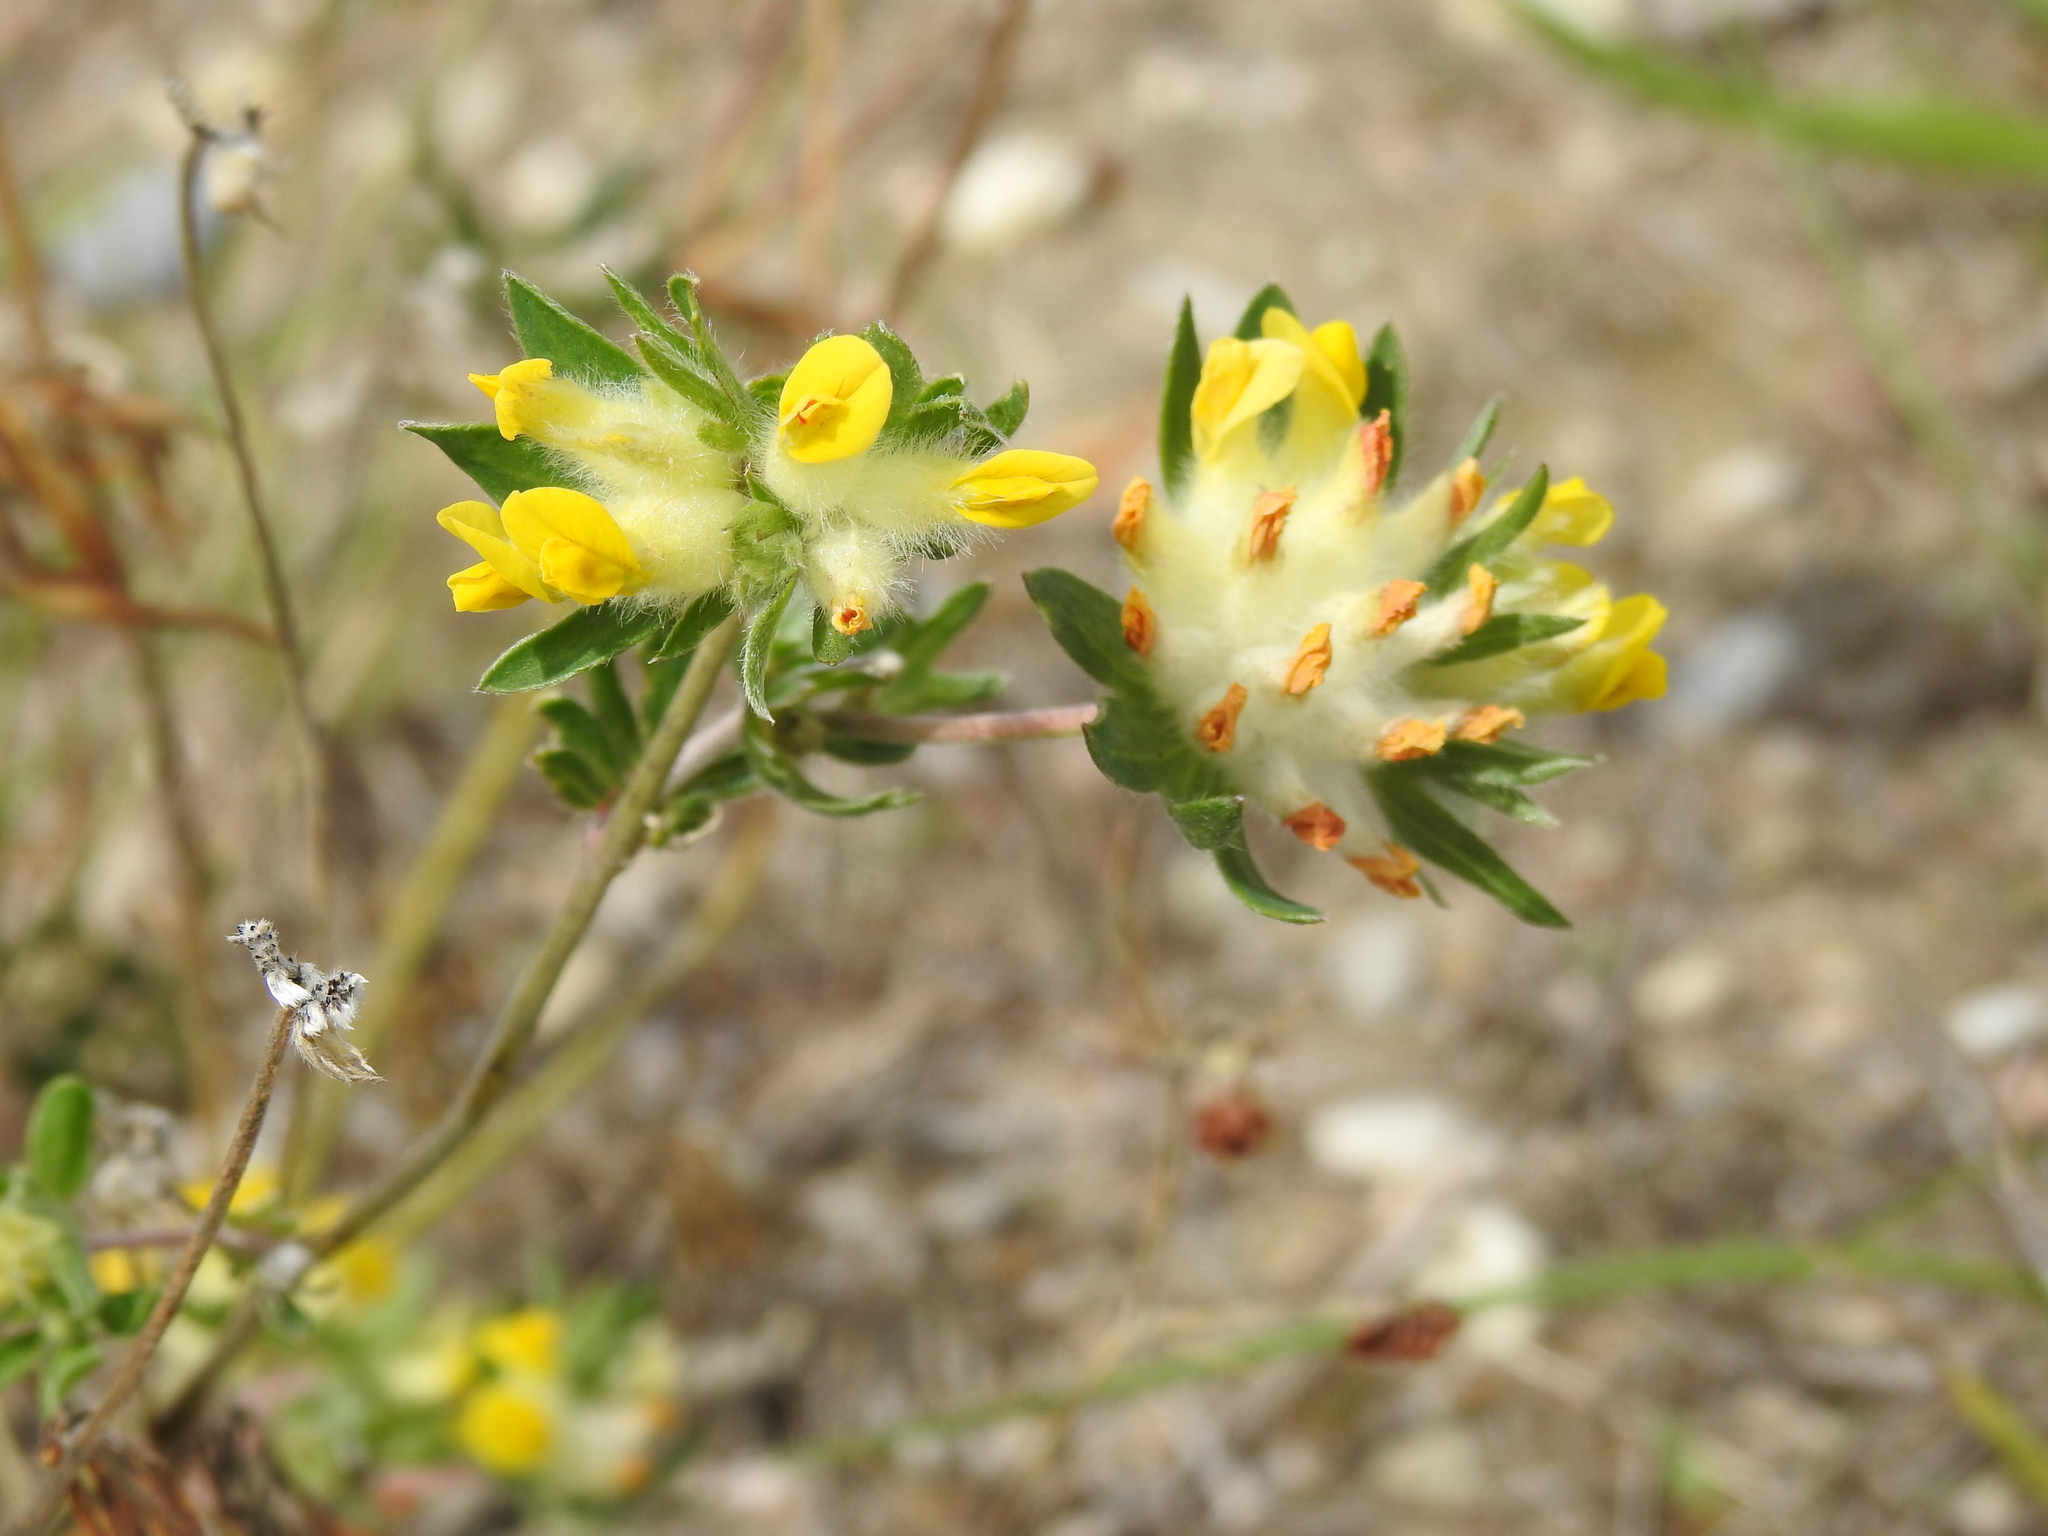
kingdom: Plantae
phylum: Tracheophyta
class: Magnoliopsida
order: Fabales
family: Fabaceae
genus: Anthyllis
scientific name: Anthyllis vulneraria
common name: Kidney vetch
